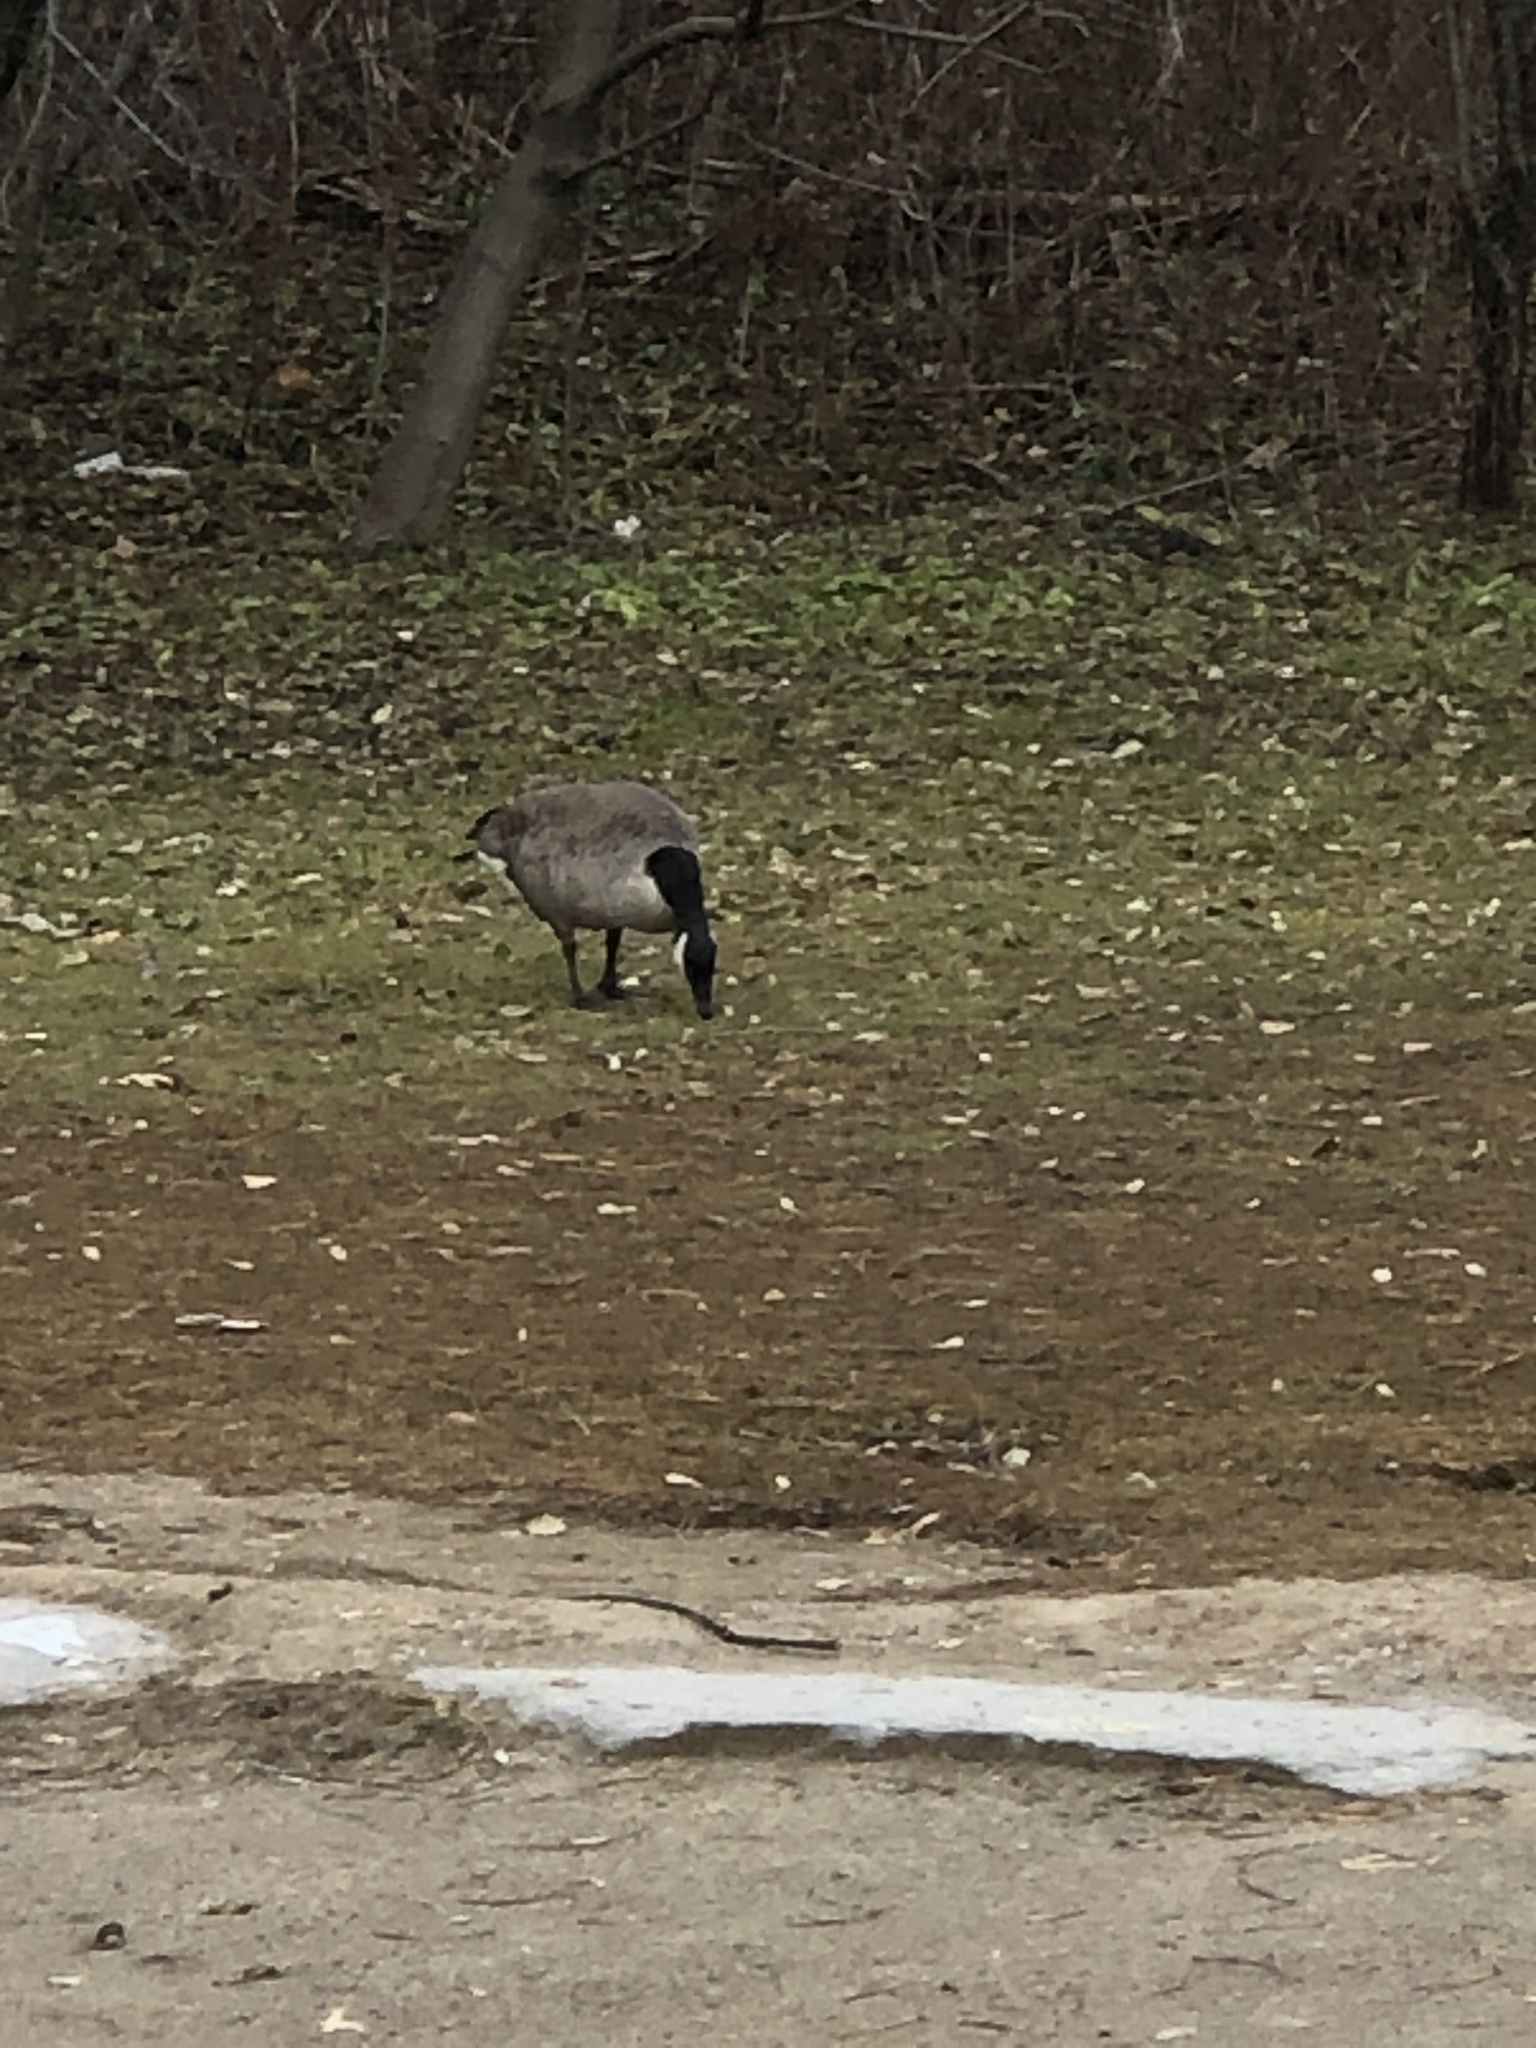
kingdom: Animalia
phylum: Chordata
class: Aves
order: Anseriformes
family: Anatidae
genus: Branta
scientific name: Branta canadensis
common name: Canada goose
